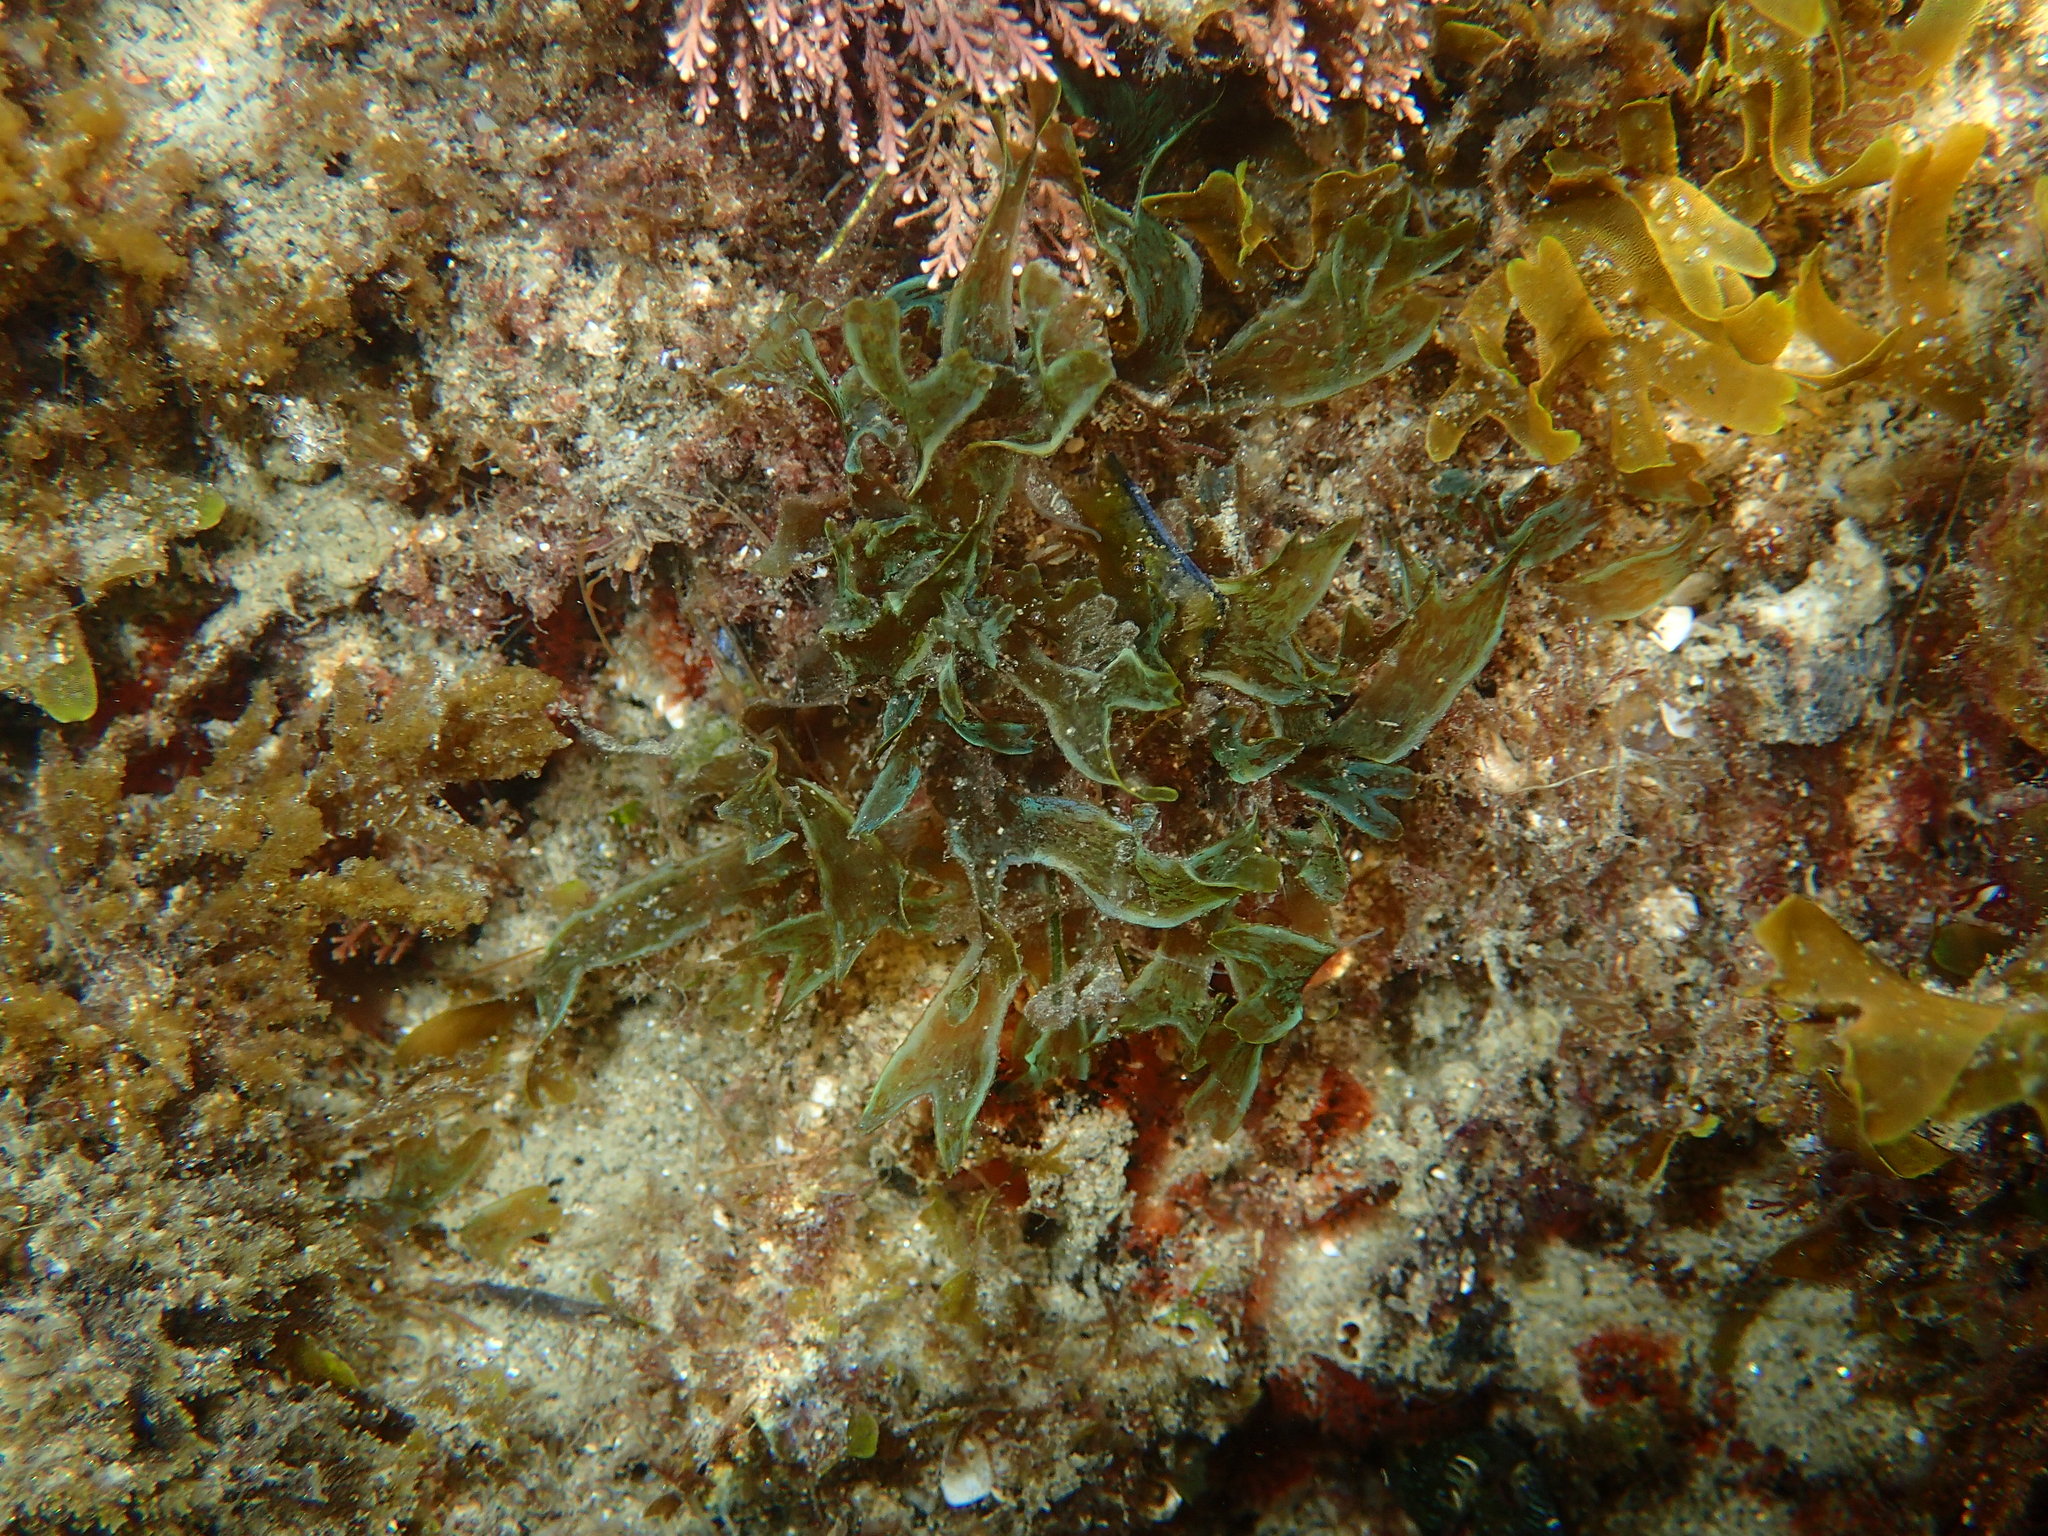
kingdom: Chromista
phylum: Ochrophyta
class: Phaeophyceae
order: Dictyotales
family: Dictyotaceae
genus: Dictyota
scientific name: Dictyota cyanoloma
